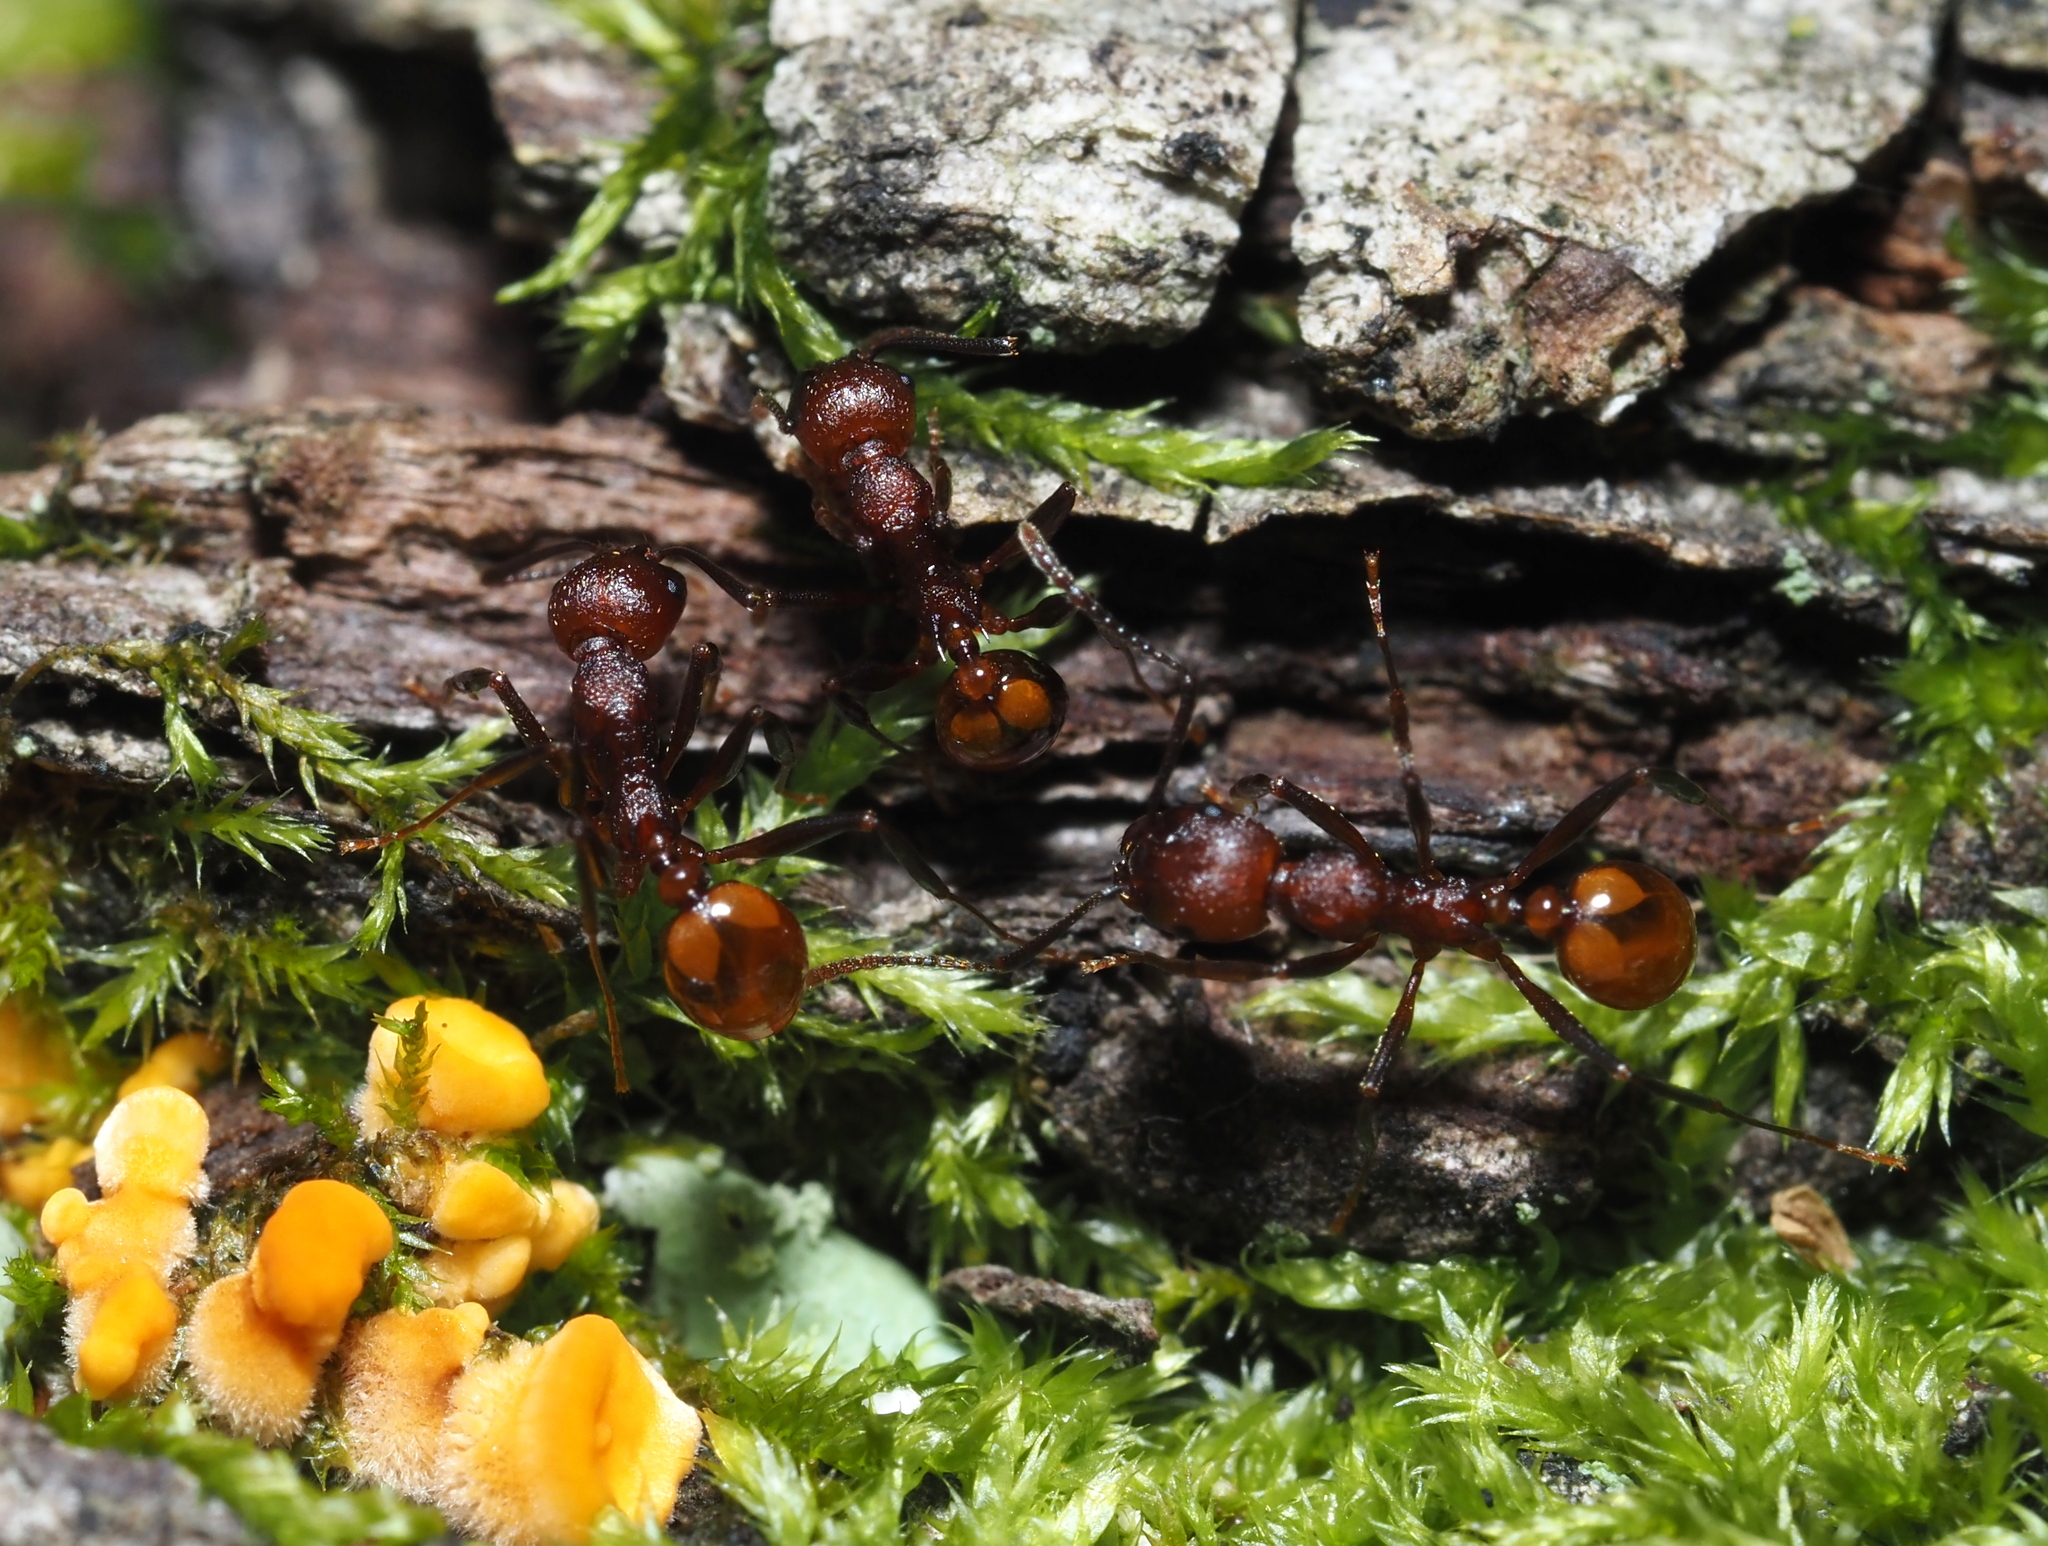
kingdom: Animalia
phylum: Arthropoda
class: Insecta
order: Hymenoptera
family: Formicidae
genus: Aphaenogaster
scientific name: Aphaenogaster tennesseensis
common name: Tennessee thread-waisted ant
